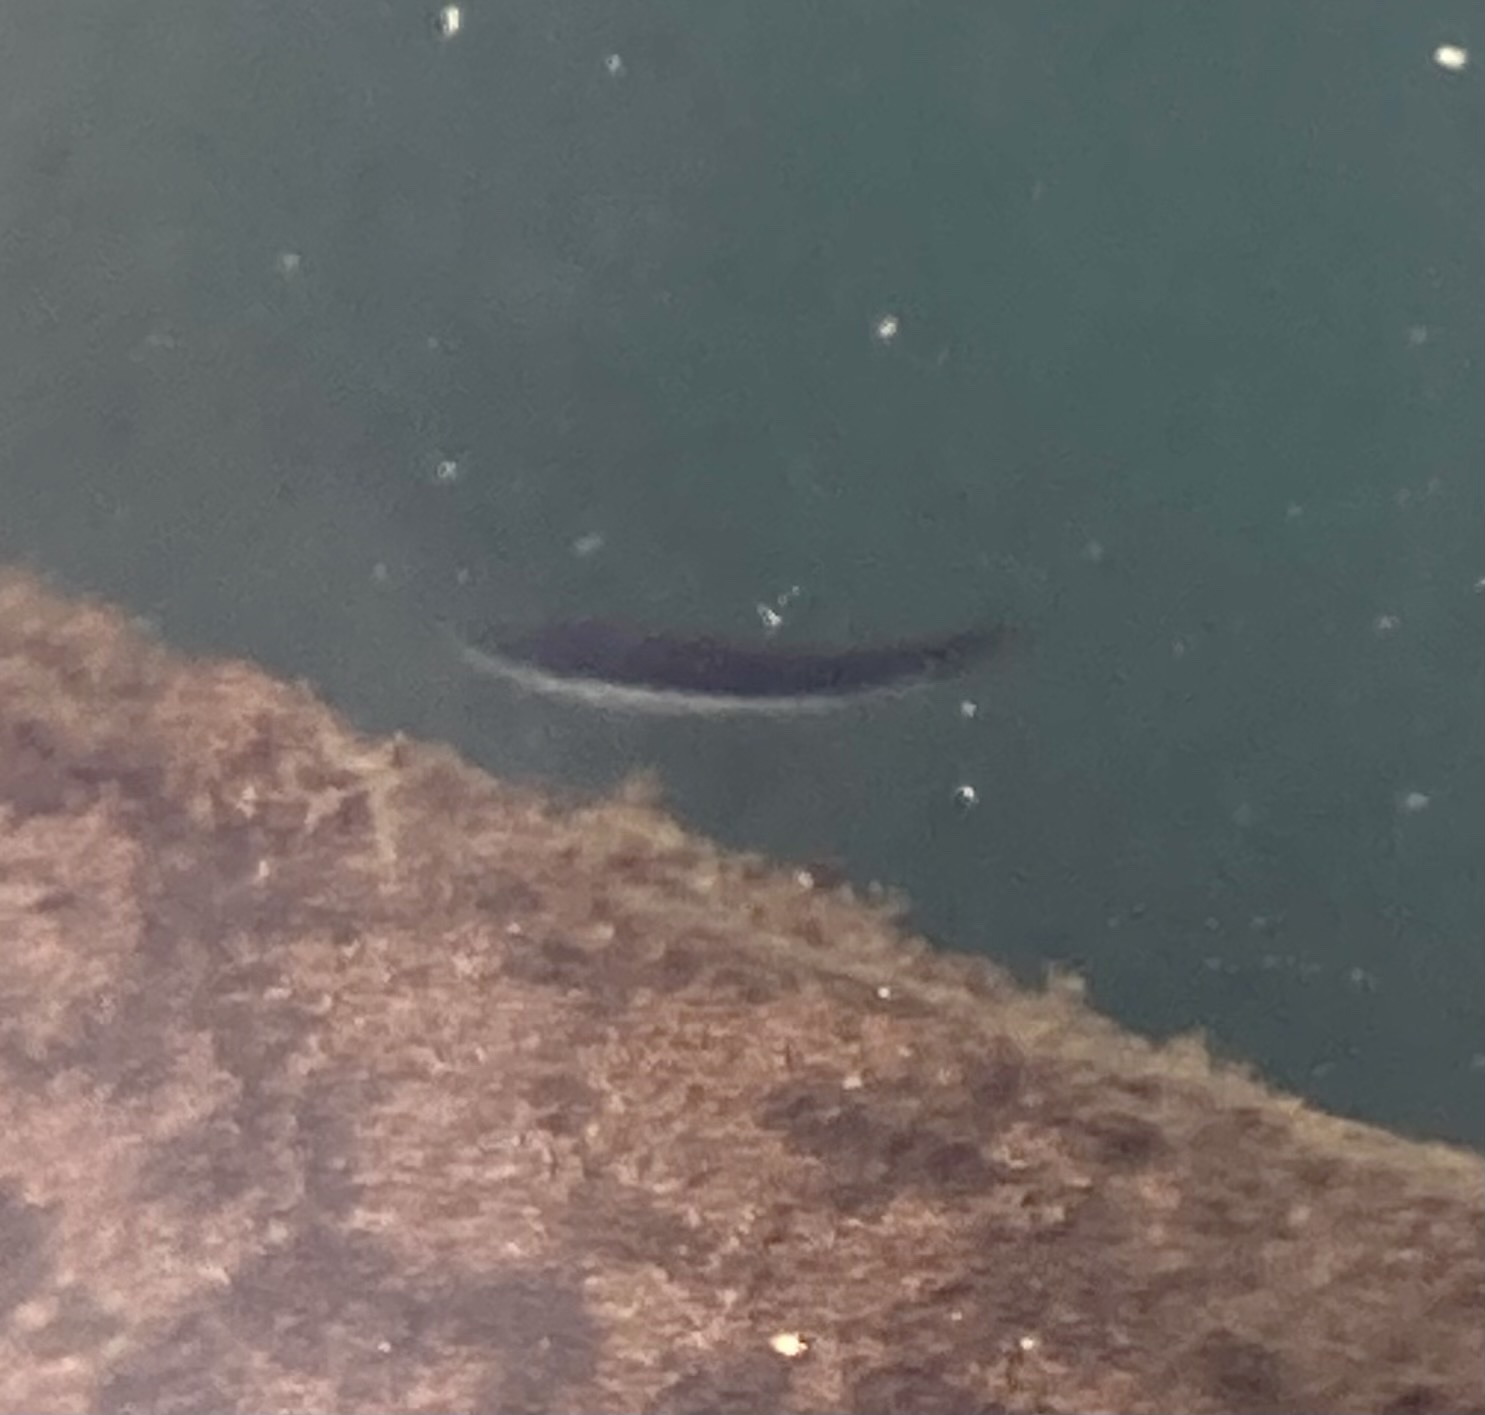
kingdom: Animalia
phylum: Chordata
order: Perciformes
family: Labridae
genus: Coris
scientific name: Coris julis
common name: Rainbow wrasse
